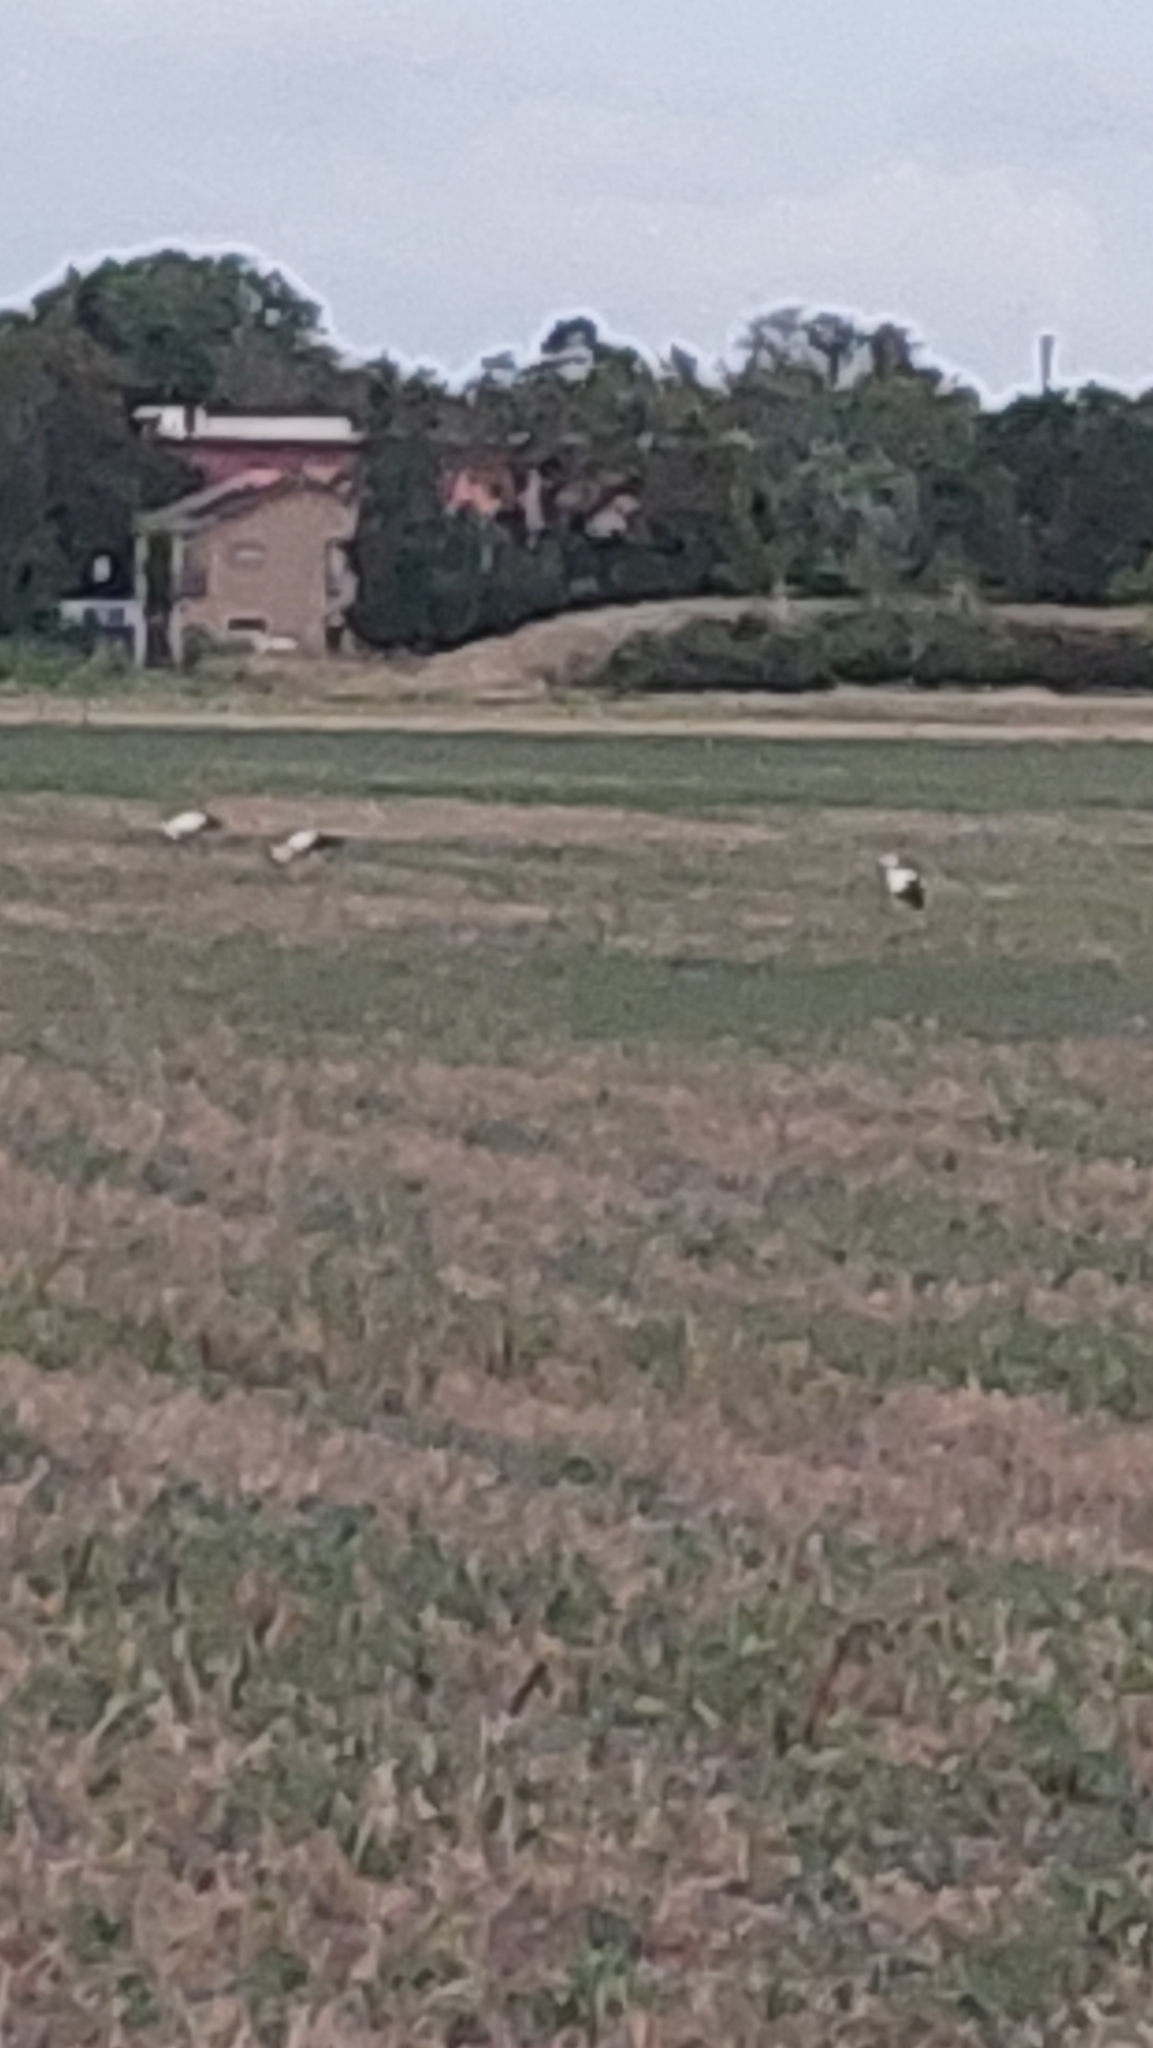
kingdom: Animalia
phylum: Chordata
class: Aves
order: Ciconiiformes
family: Ciconiidae
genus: Ciconia
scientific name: Ciconia ciconia
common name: White stork
